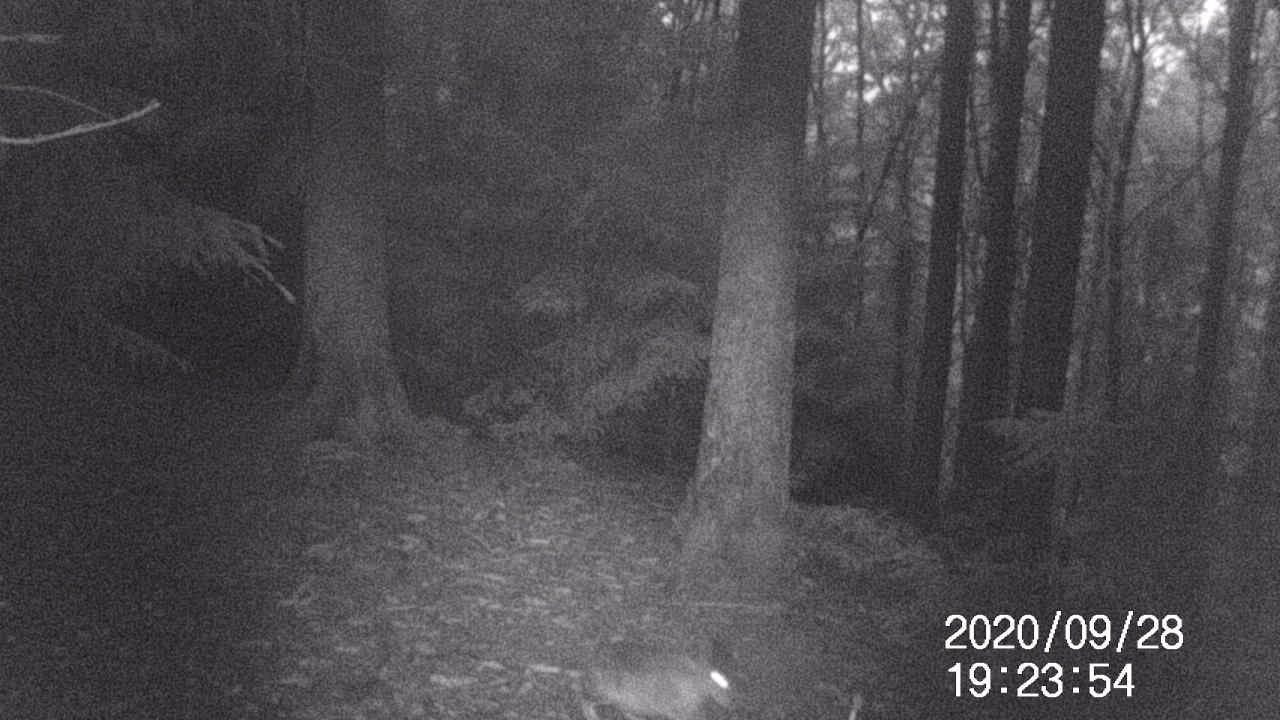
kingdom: Animalia
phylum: Chordata
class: Mammalia
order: Lagomorpha
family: Leporidae
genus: Lepus
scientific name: Lepus europaeus
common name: European hare
